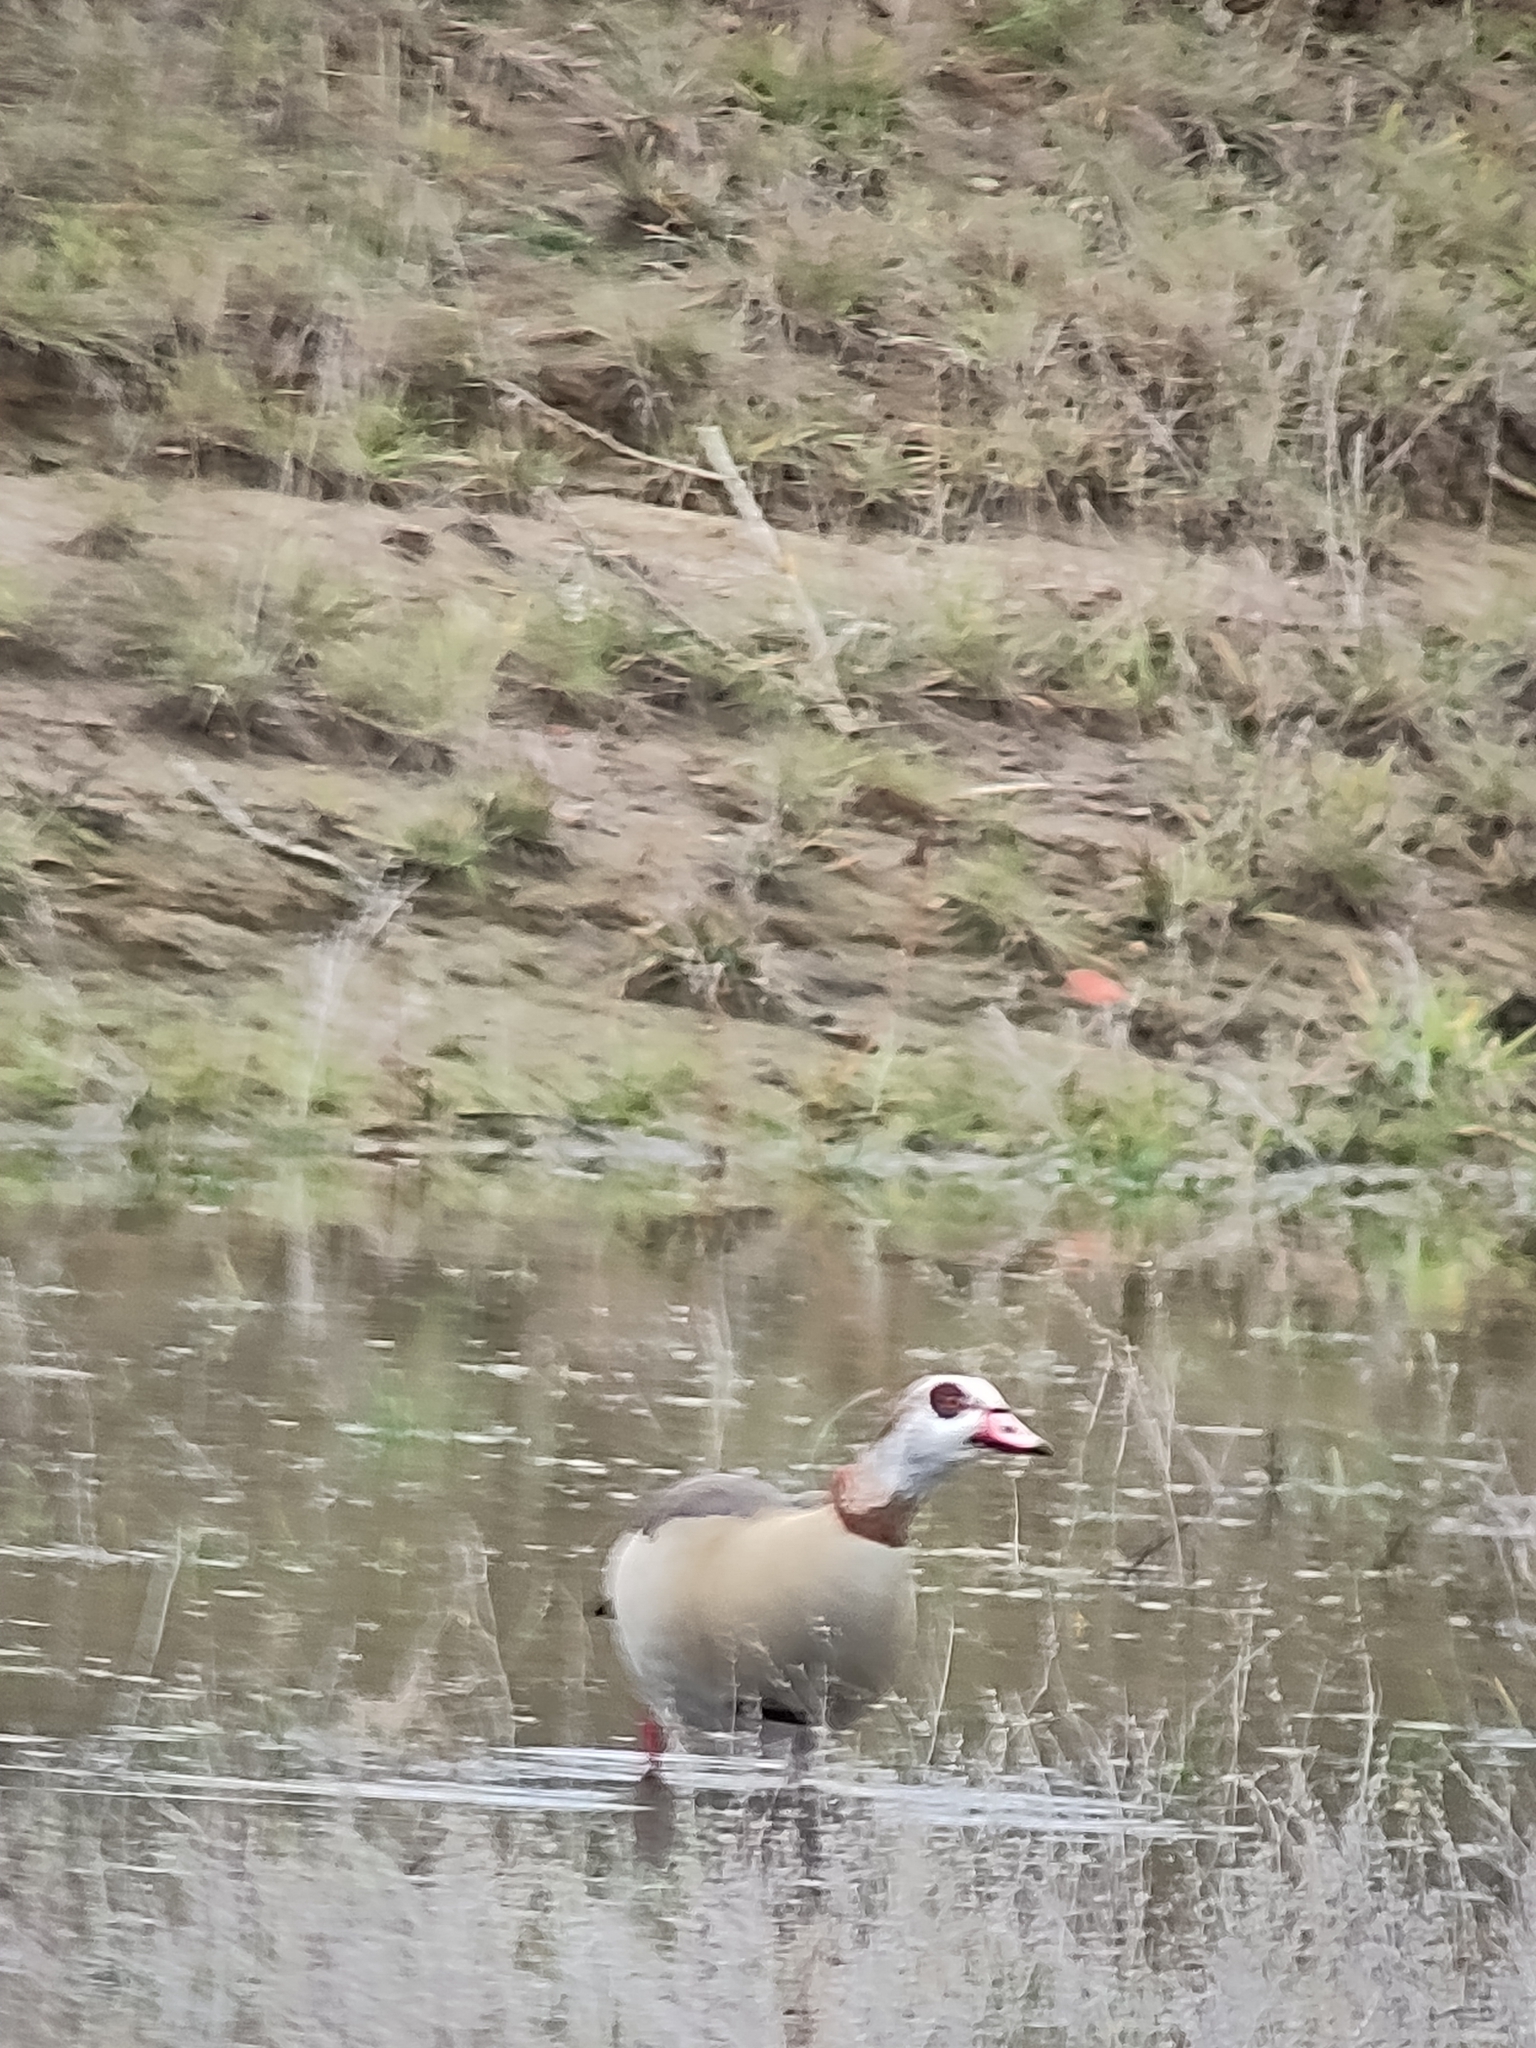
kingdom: Animalia
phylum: Chordata
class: Aves
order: Anseriformes
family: Anatidae
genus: Alopochen
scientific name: Alopochen aegyptiaca
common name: Egyptian goose
